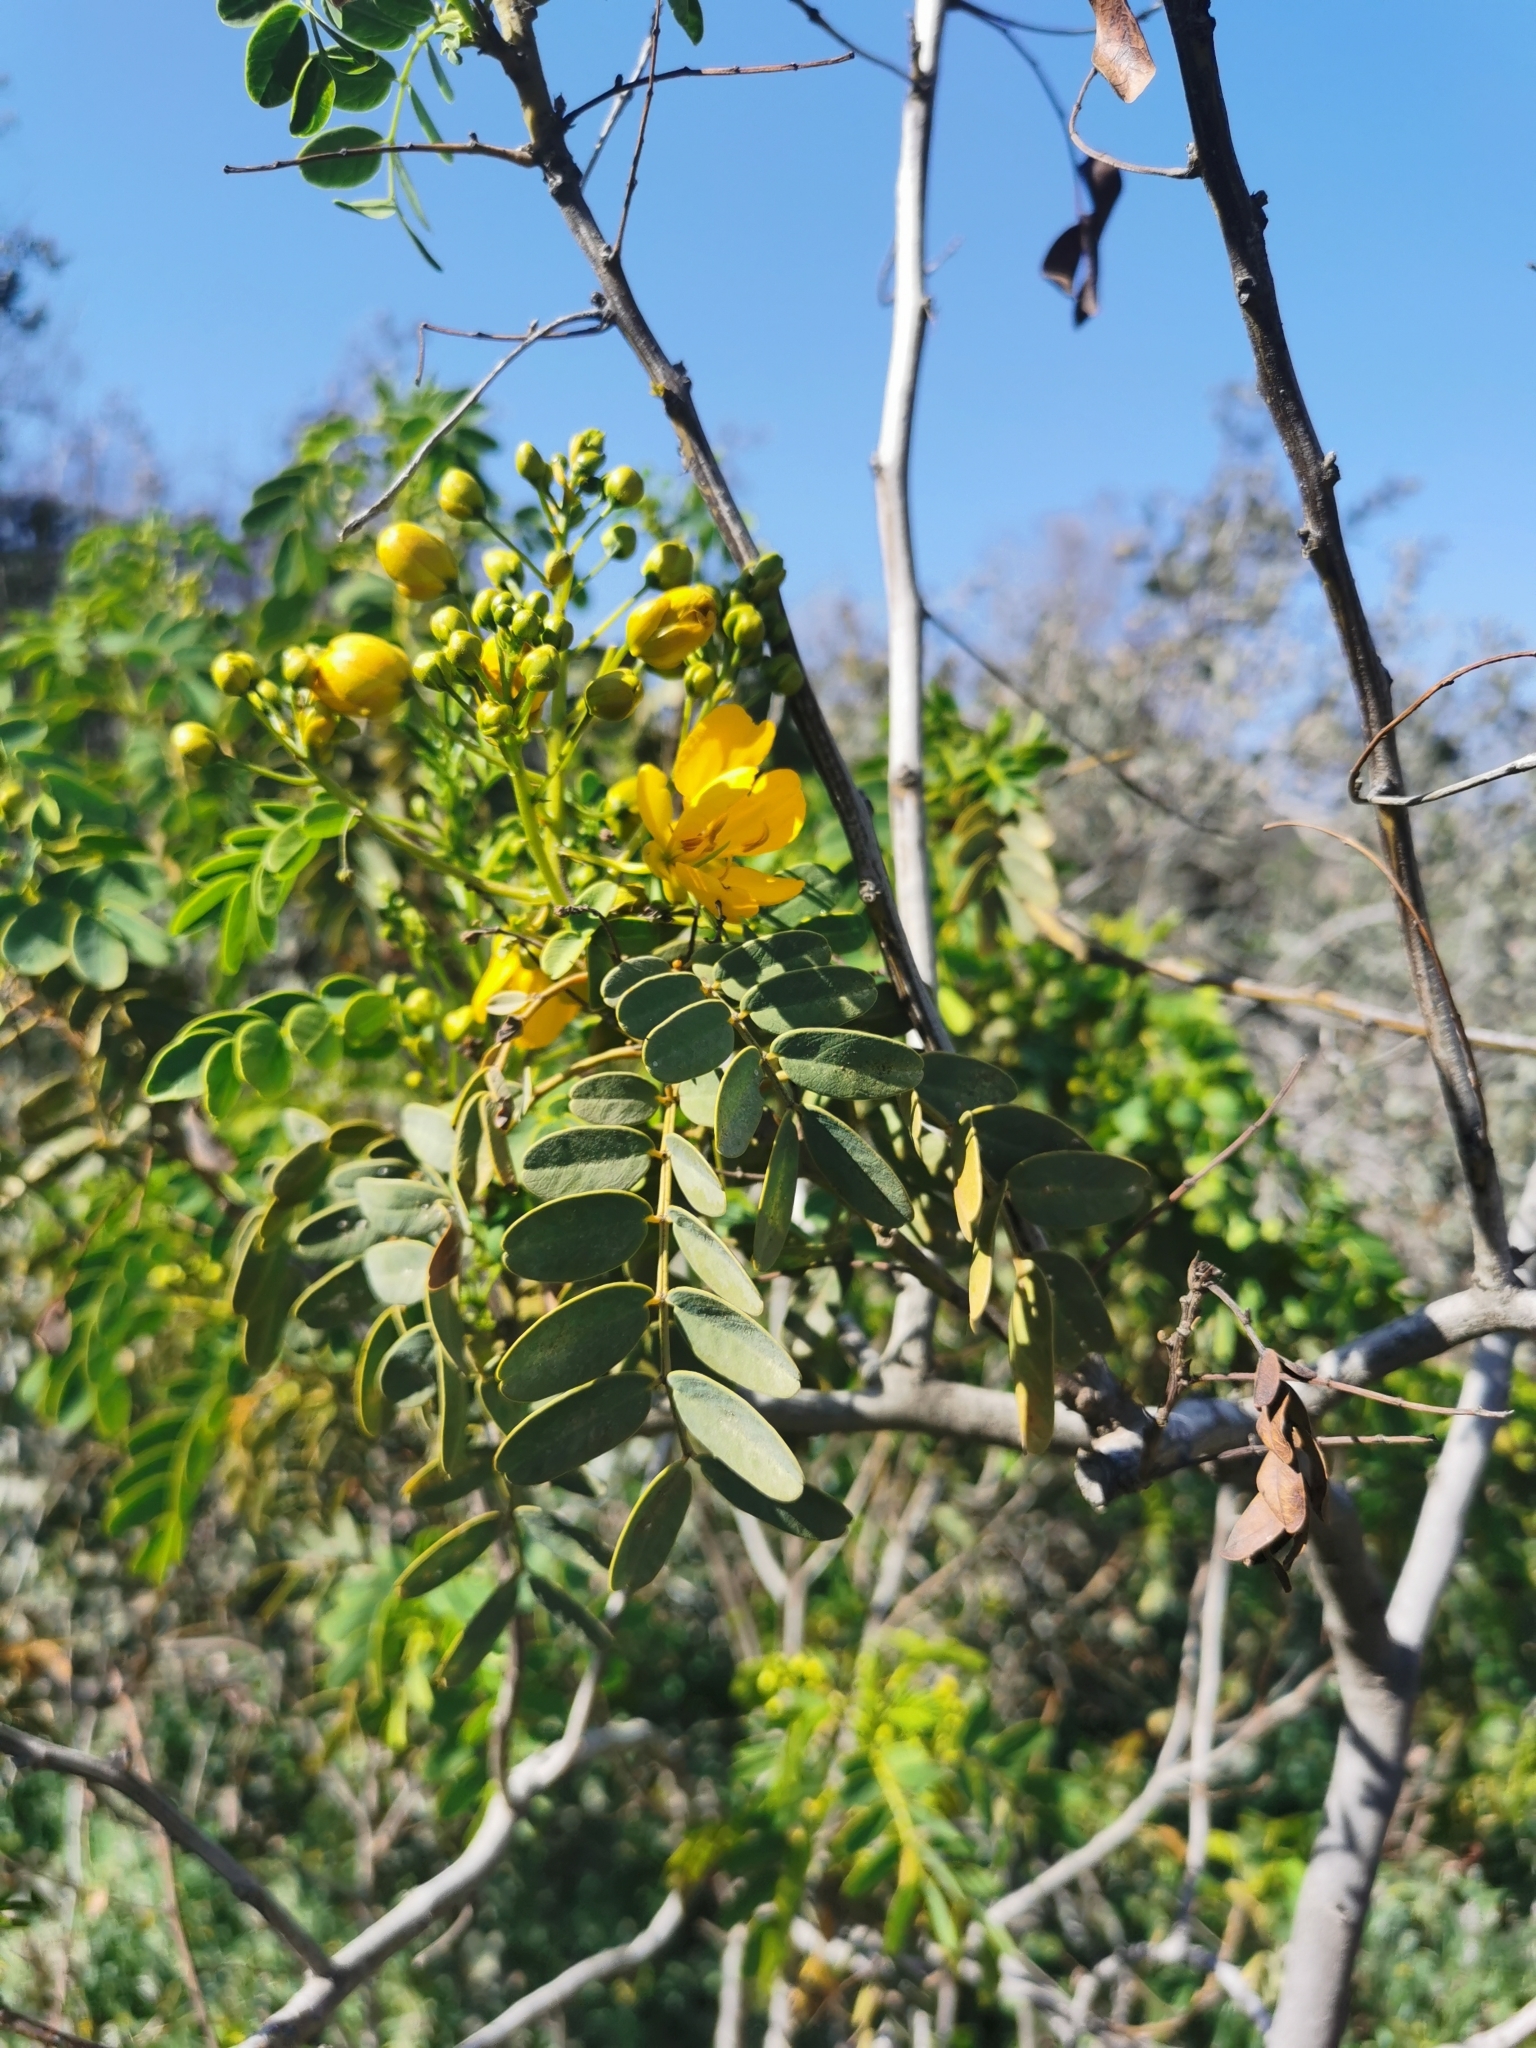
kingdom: Plantae
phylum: Tracheophyta
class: Magnoliopsida
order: Fabales
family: Fabaceae
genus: Senna
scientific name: Senna candolleana
